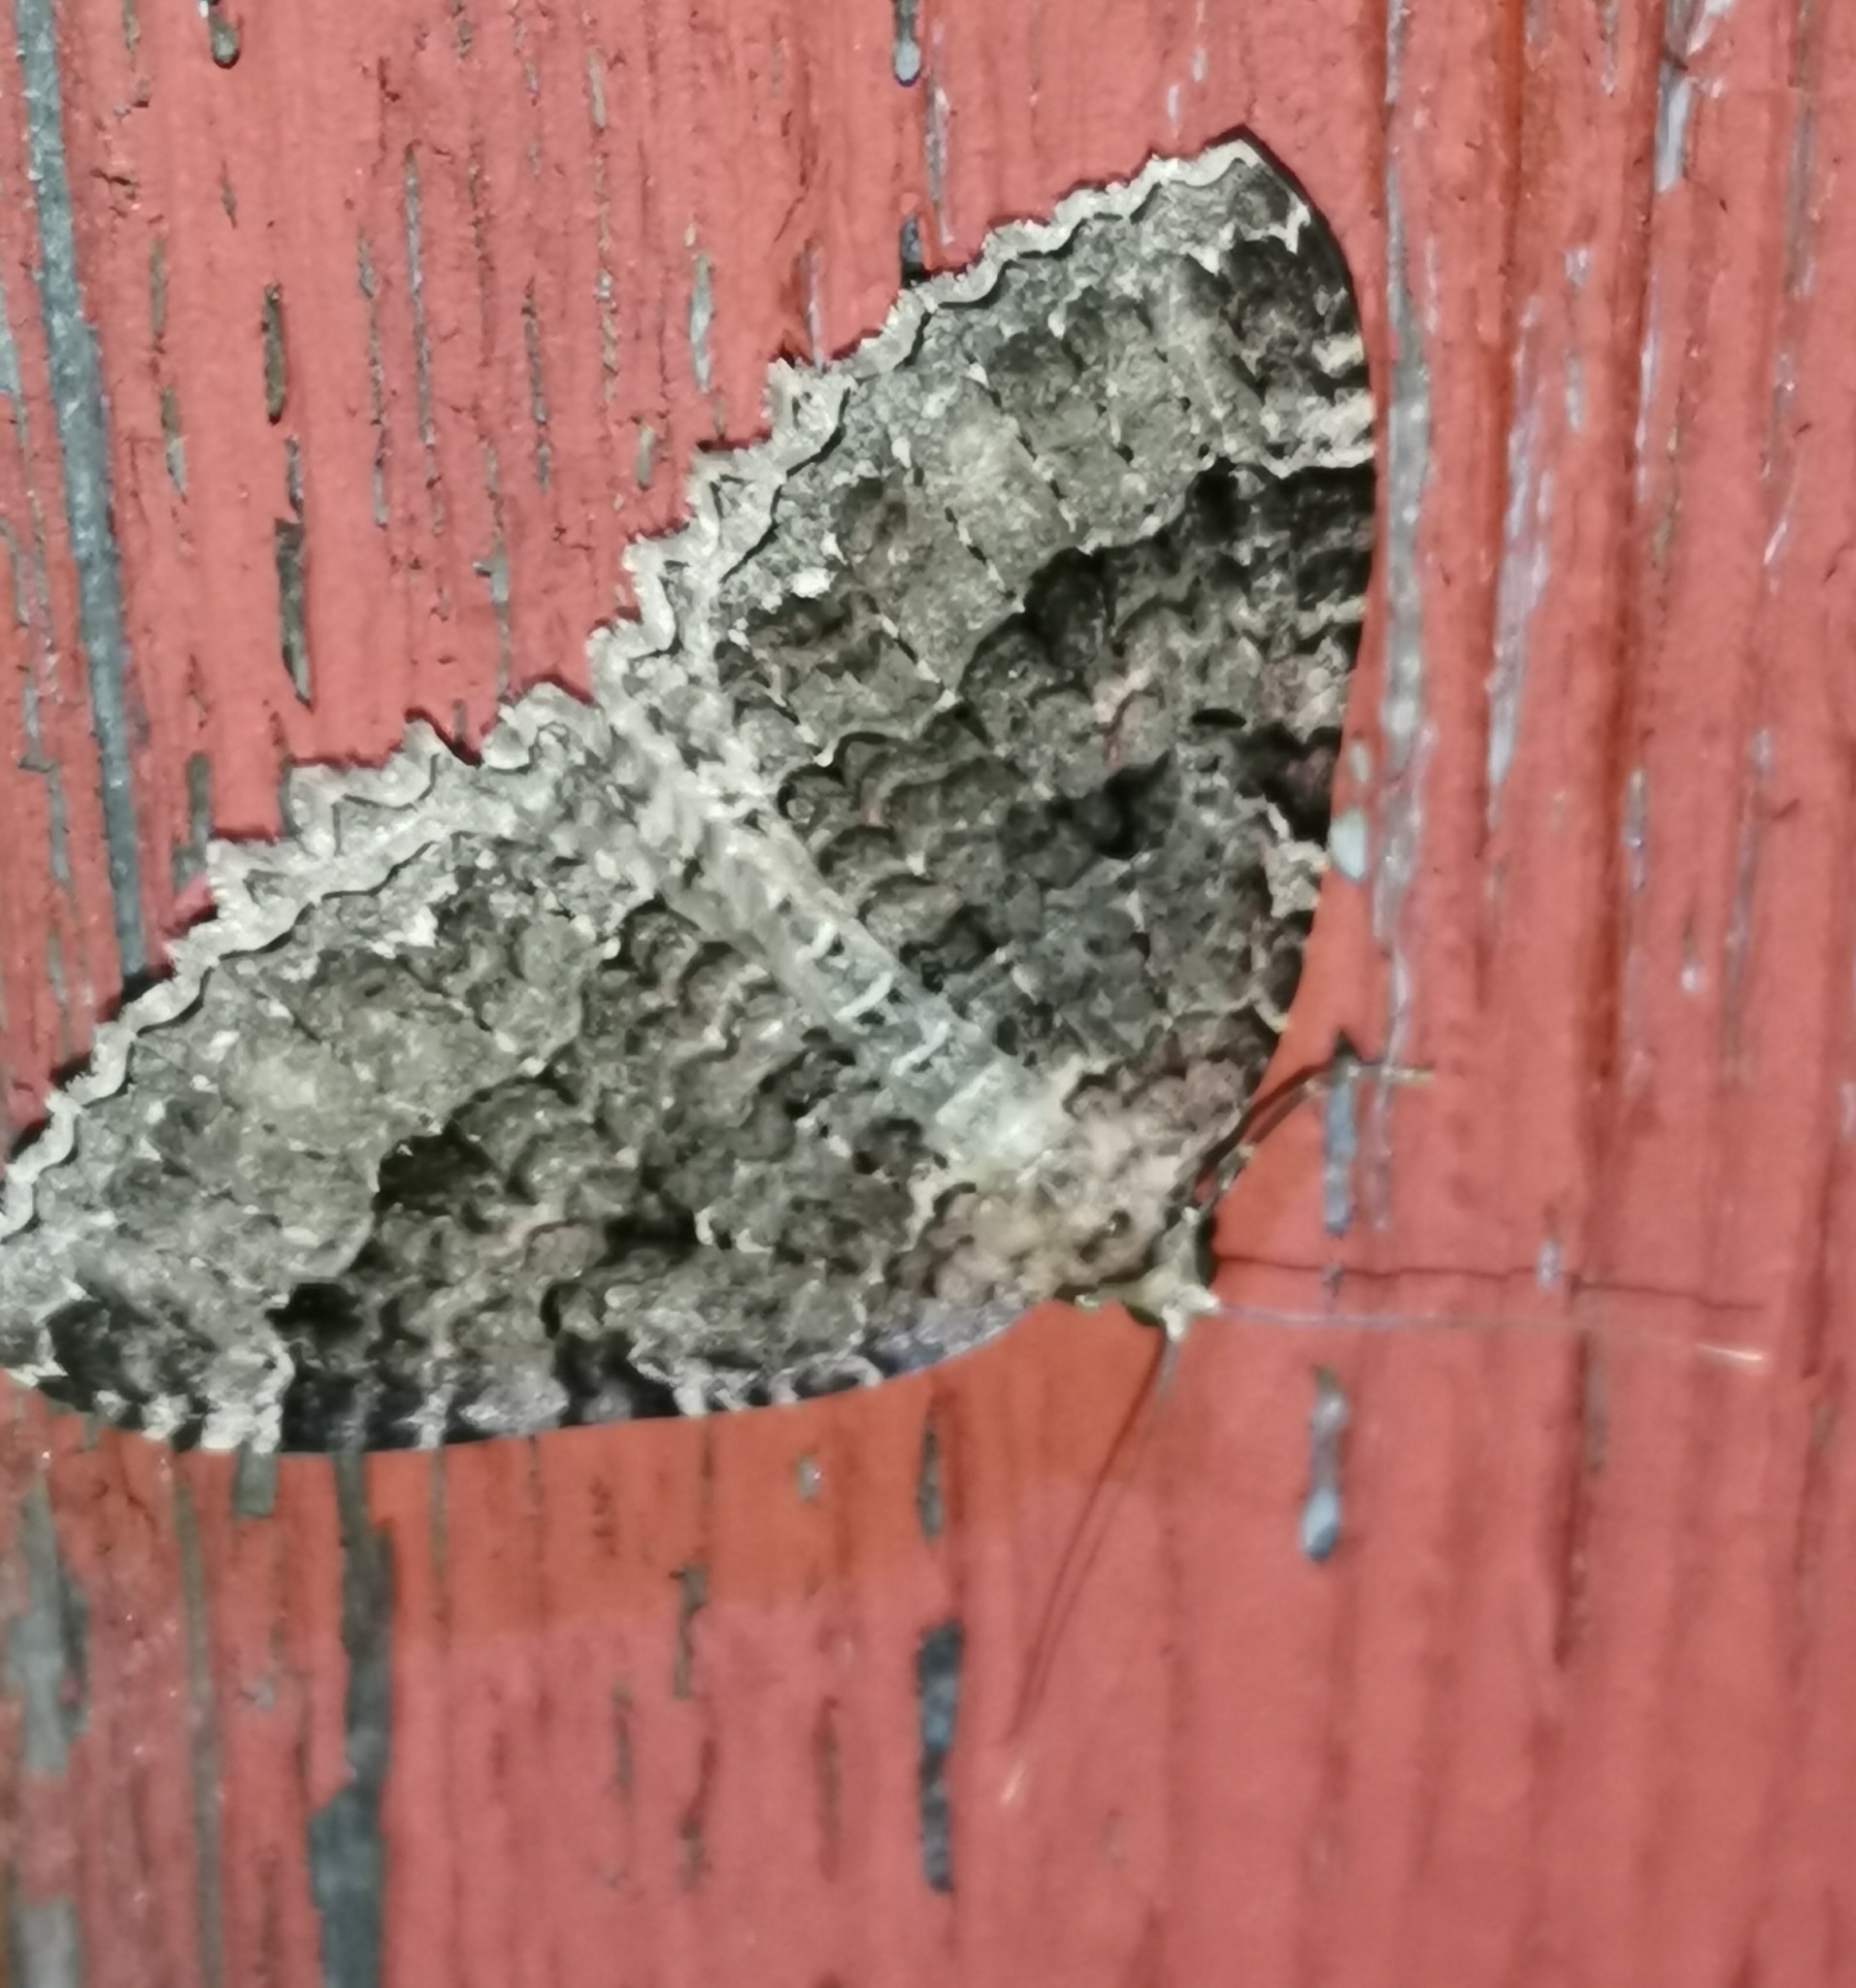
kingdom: Animalia
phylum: Arthropoda
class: Insecta
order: Lepidoptera
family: Geometridae
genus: Triphosa
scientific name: Triphosa dubitata
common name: Tissue
